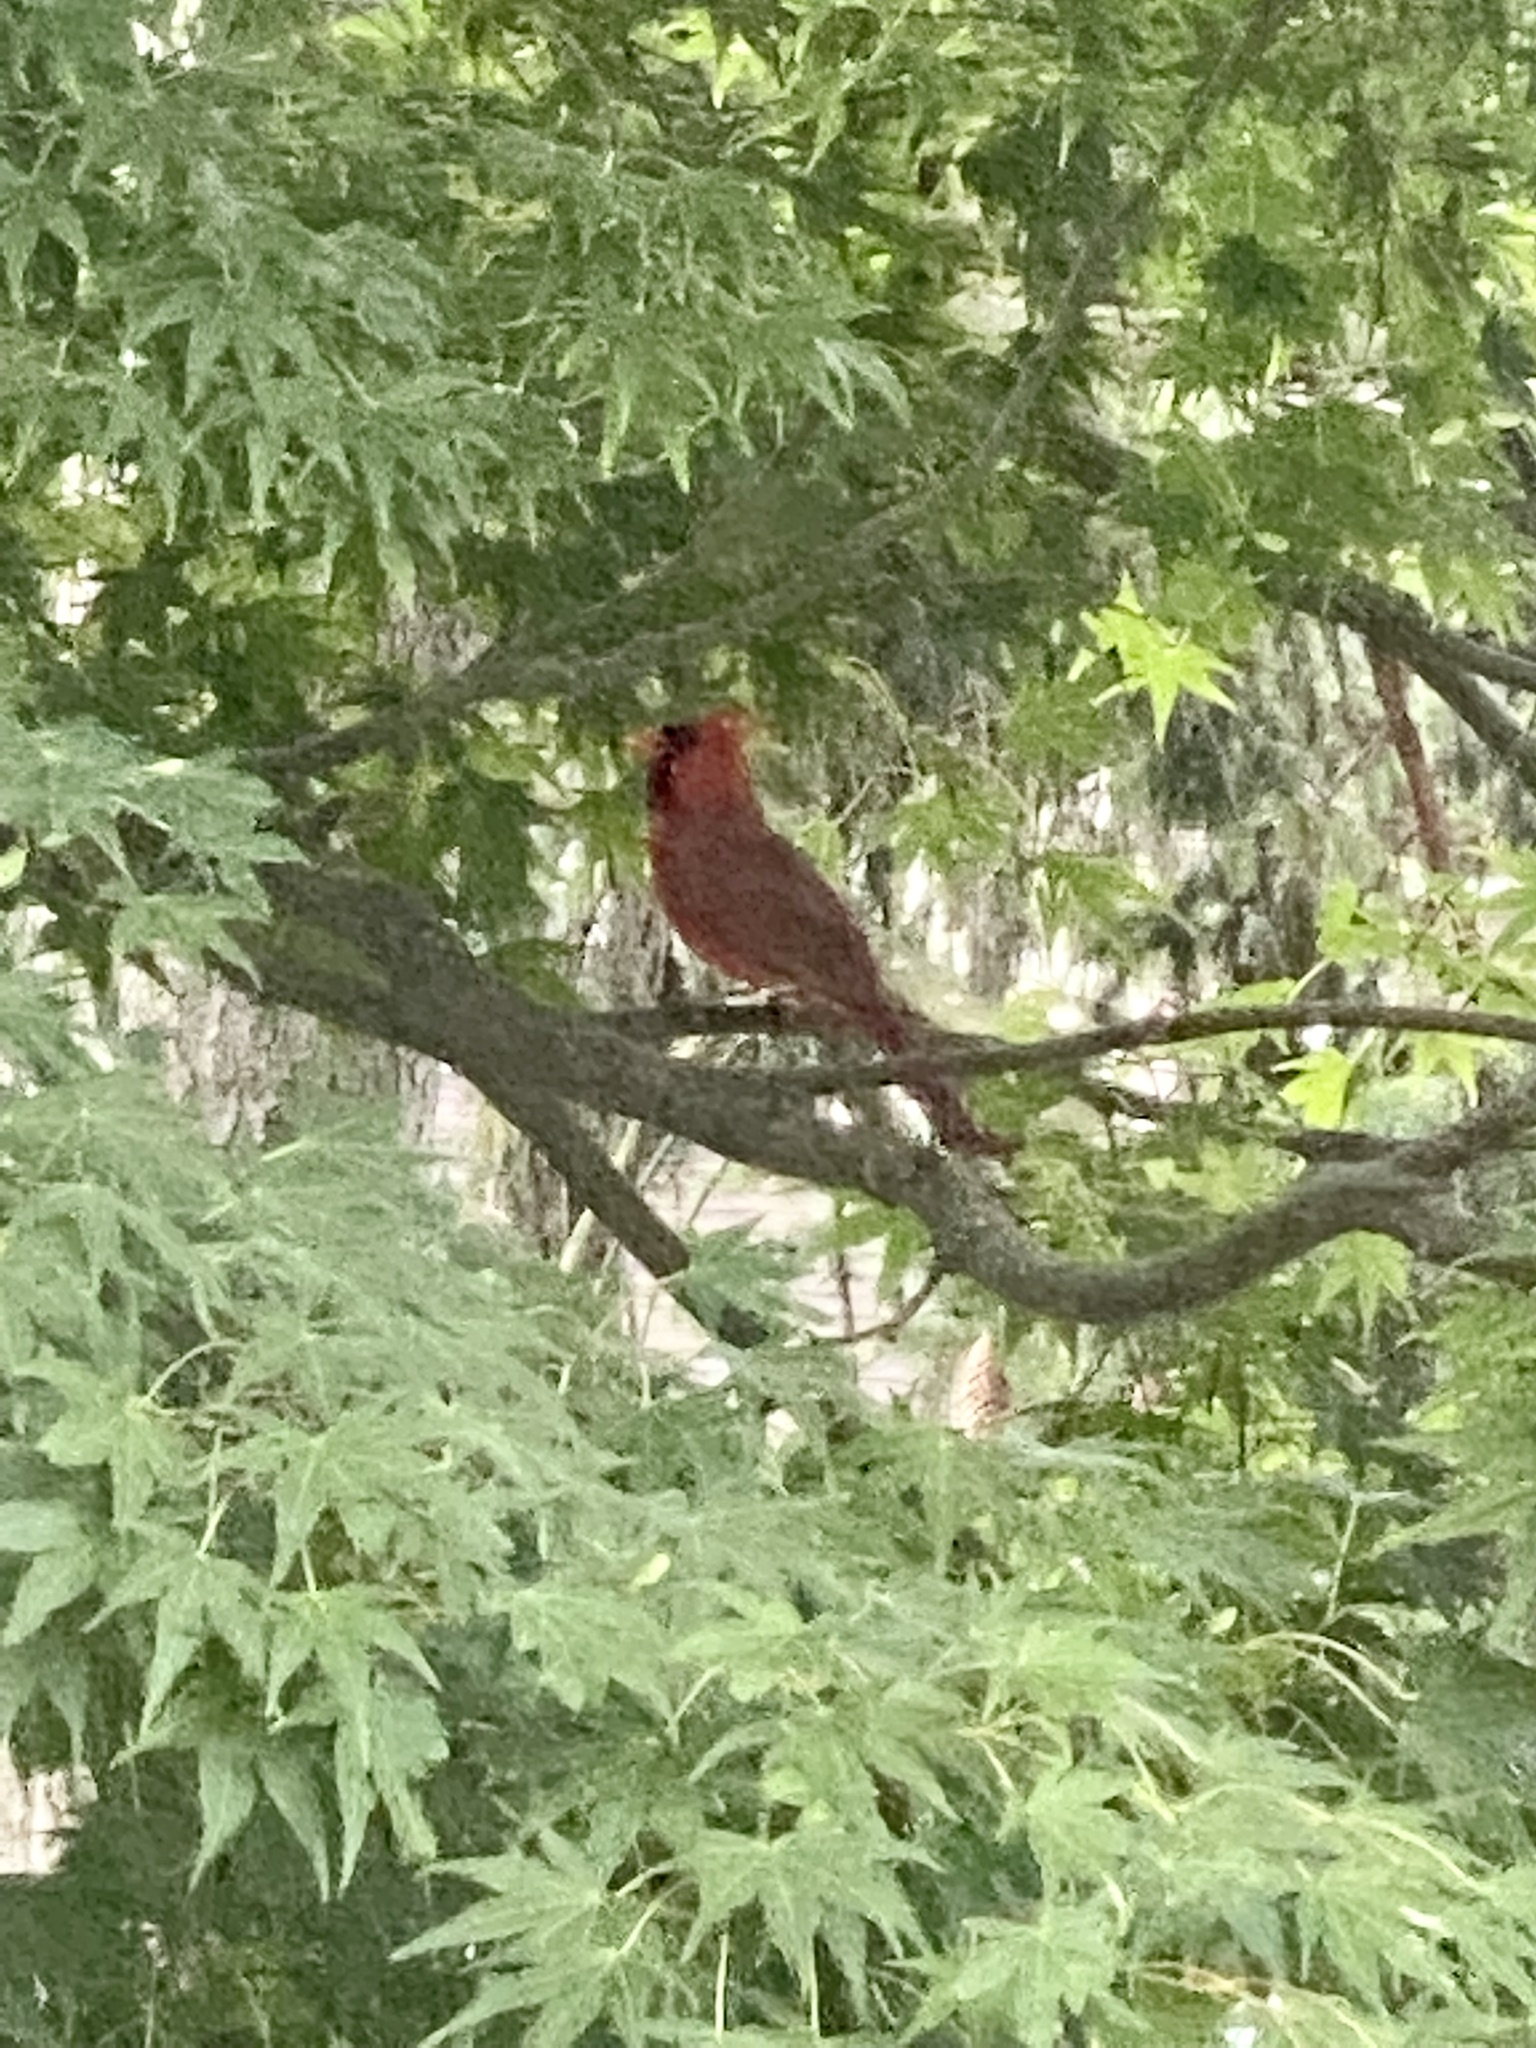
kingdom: Animalia
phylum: Chordata
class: Aves
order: Passeriformes
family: Cardinalidae
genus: Cardinalis
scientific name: Cardinalis cardinalis
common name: Northern cardinal
